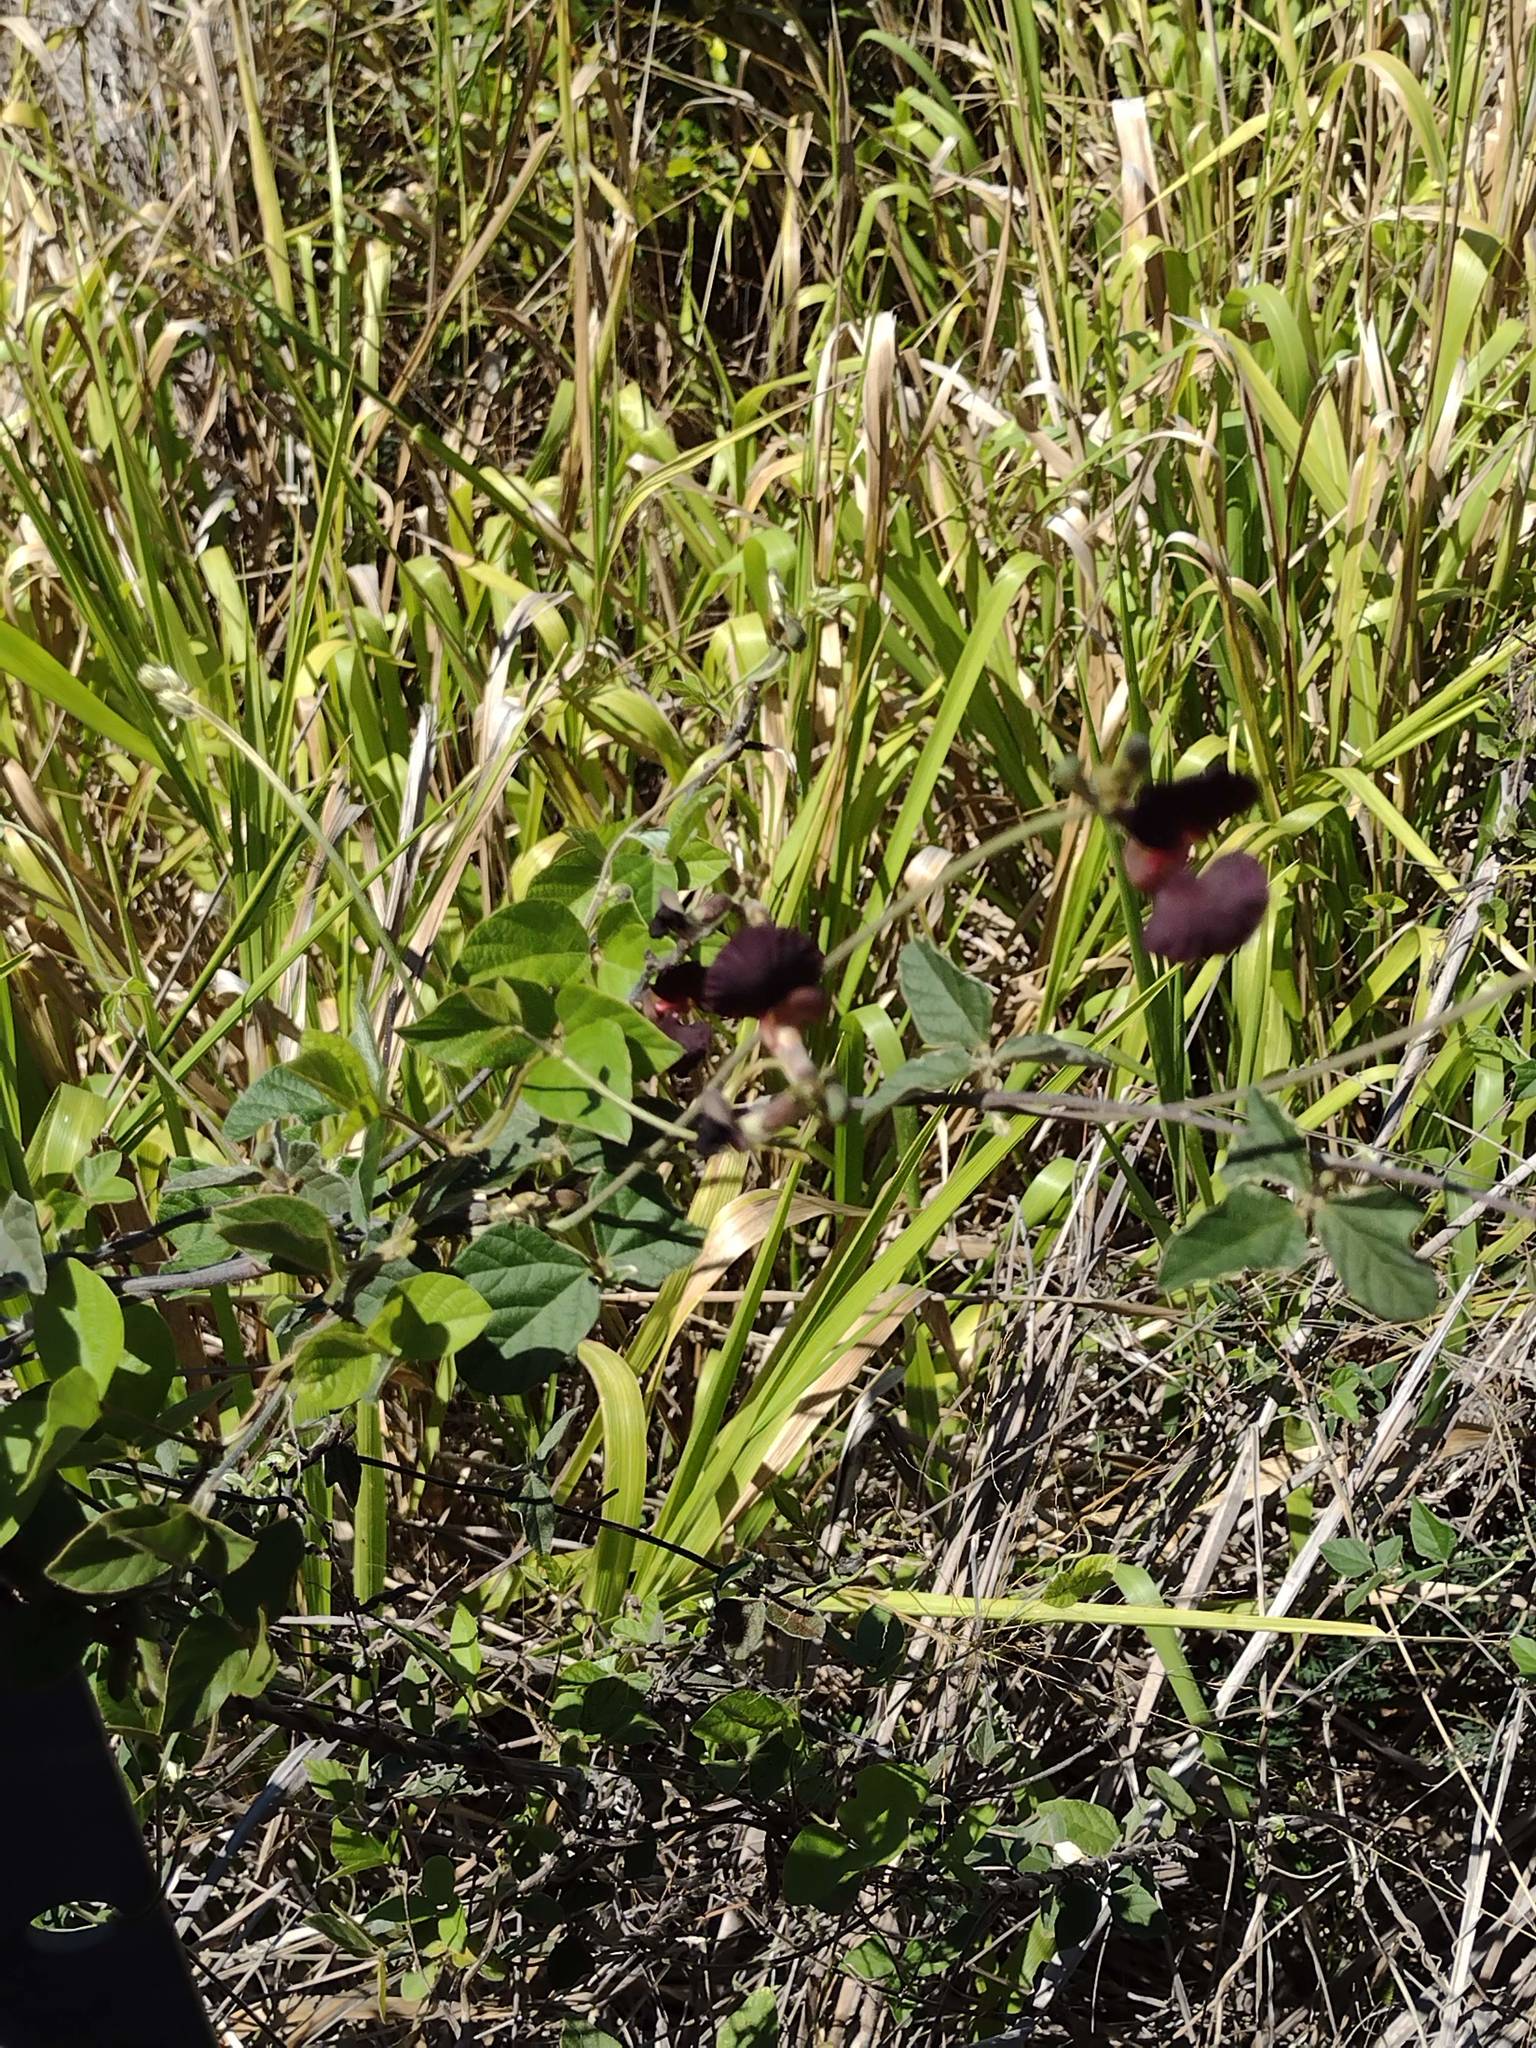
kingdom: Plantae
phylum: Tracheophyta
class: Magnoliopsida
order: Fabales
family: Fabaceae
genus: Macroptilium
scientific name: Macroptilium atropurpureum
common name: Purple bushbean
